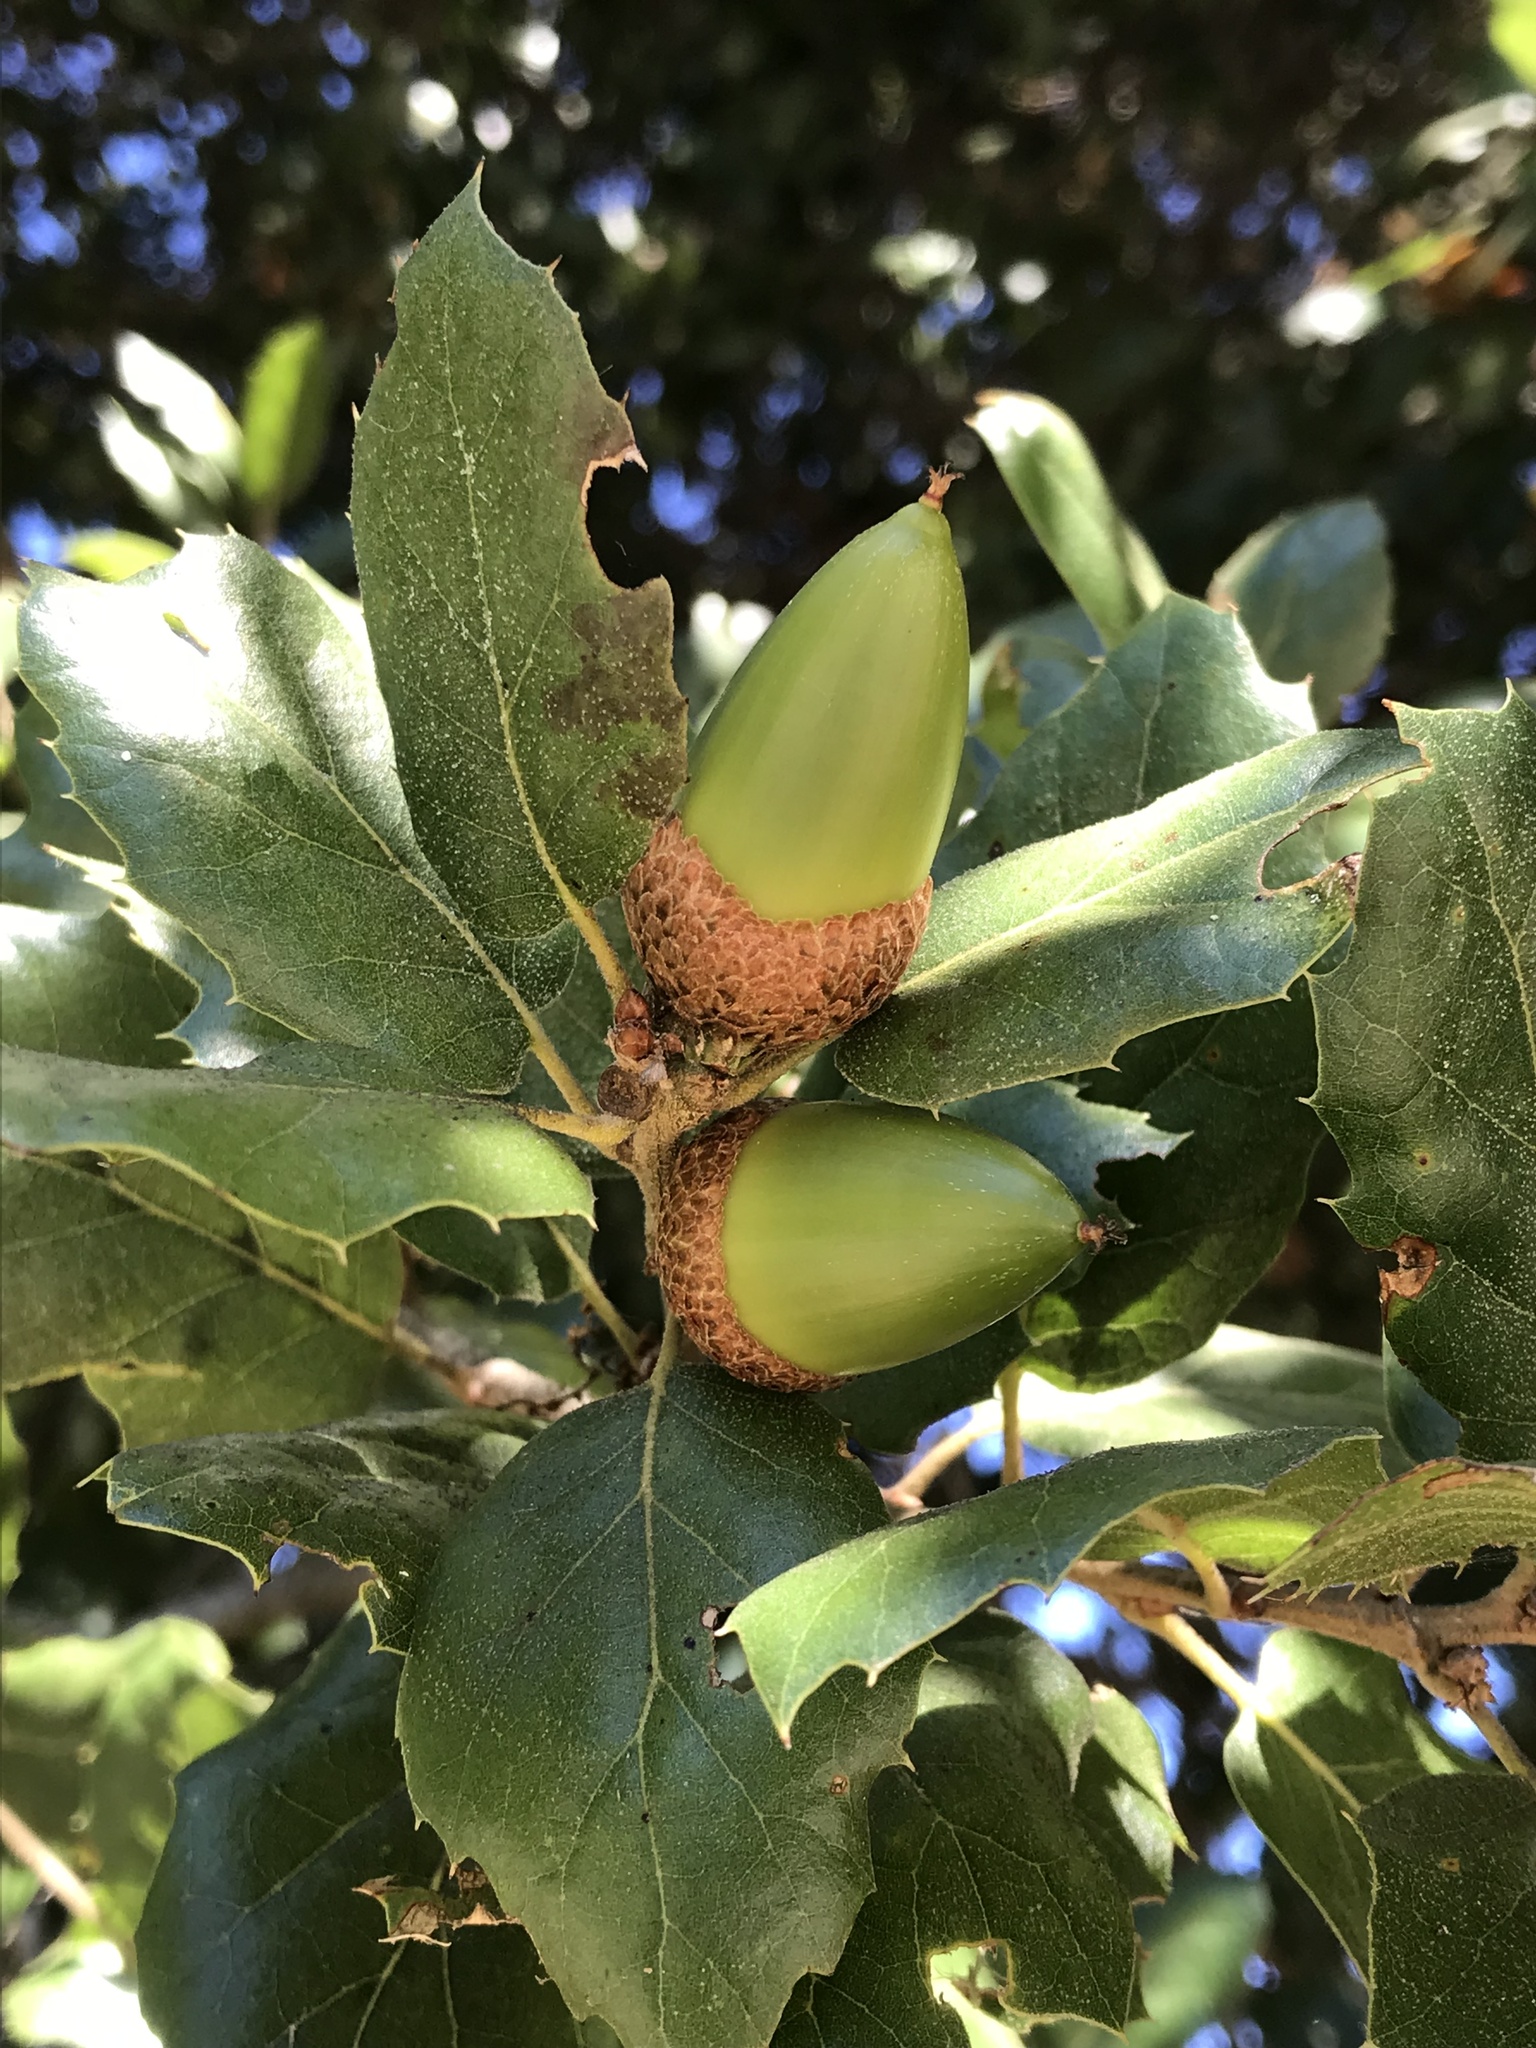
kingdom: Plantae
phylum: Tracheophyta
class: Magnoliopsida
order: Fagales
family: Fagaceae
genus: Quercus
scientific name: Quercus agrifolia
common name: California live oak
